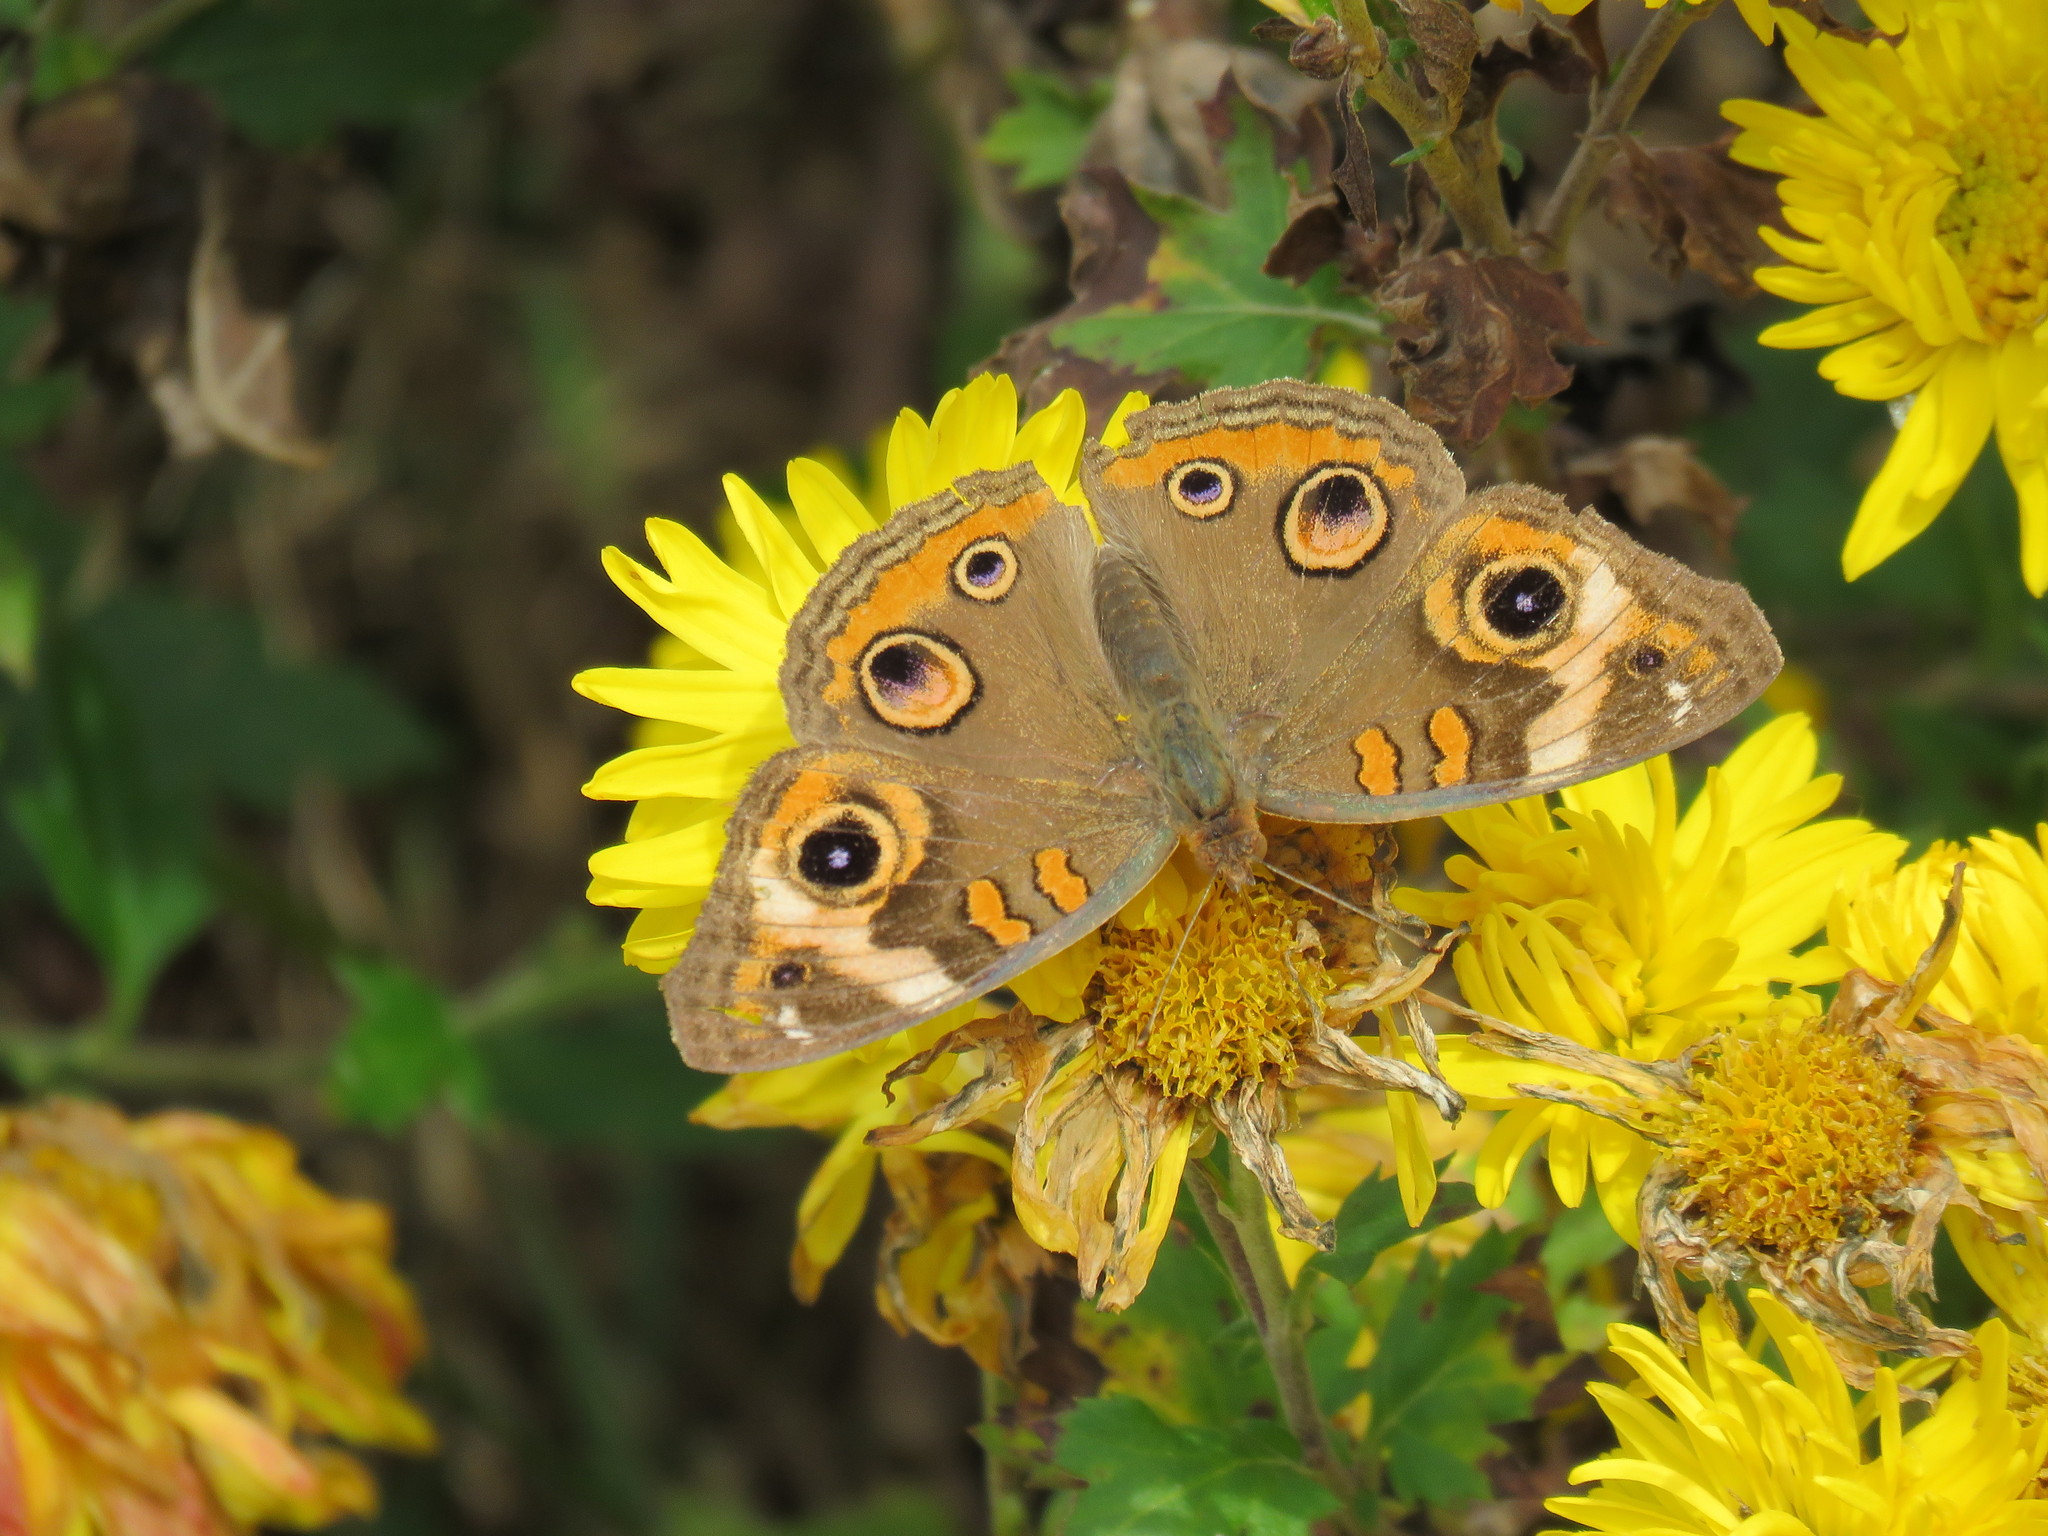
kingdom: Animalia
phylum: Arthropoda
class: Insecta
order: Lepidoptera
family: Nymphalidae
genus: Junonia
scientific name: Junonia coenia
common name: Common buckeye
